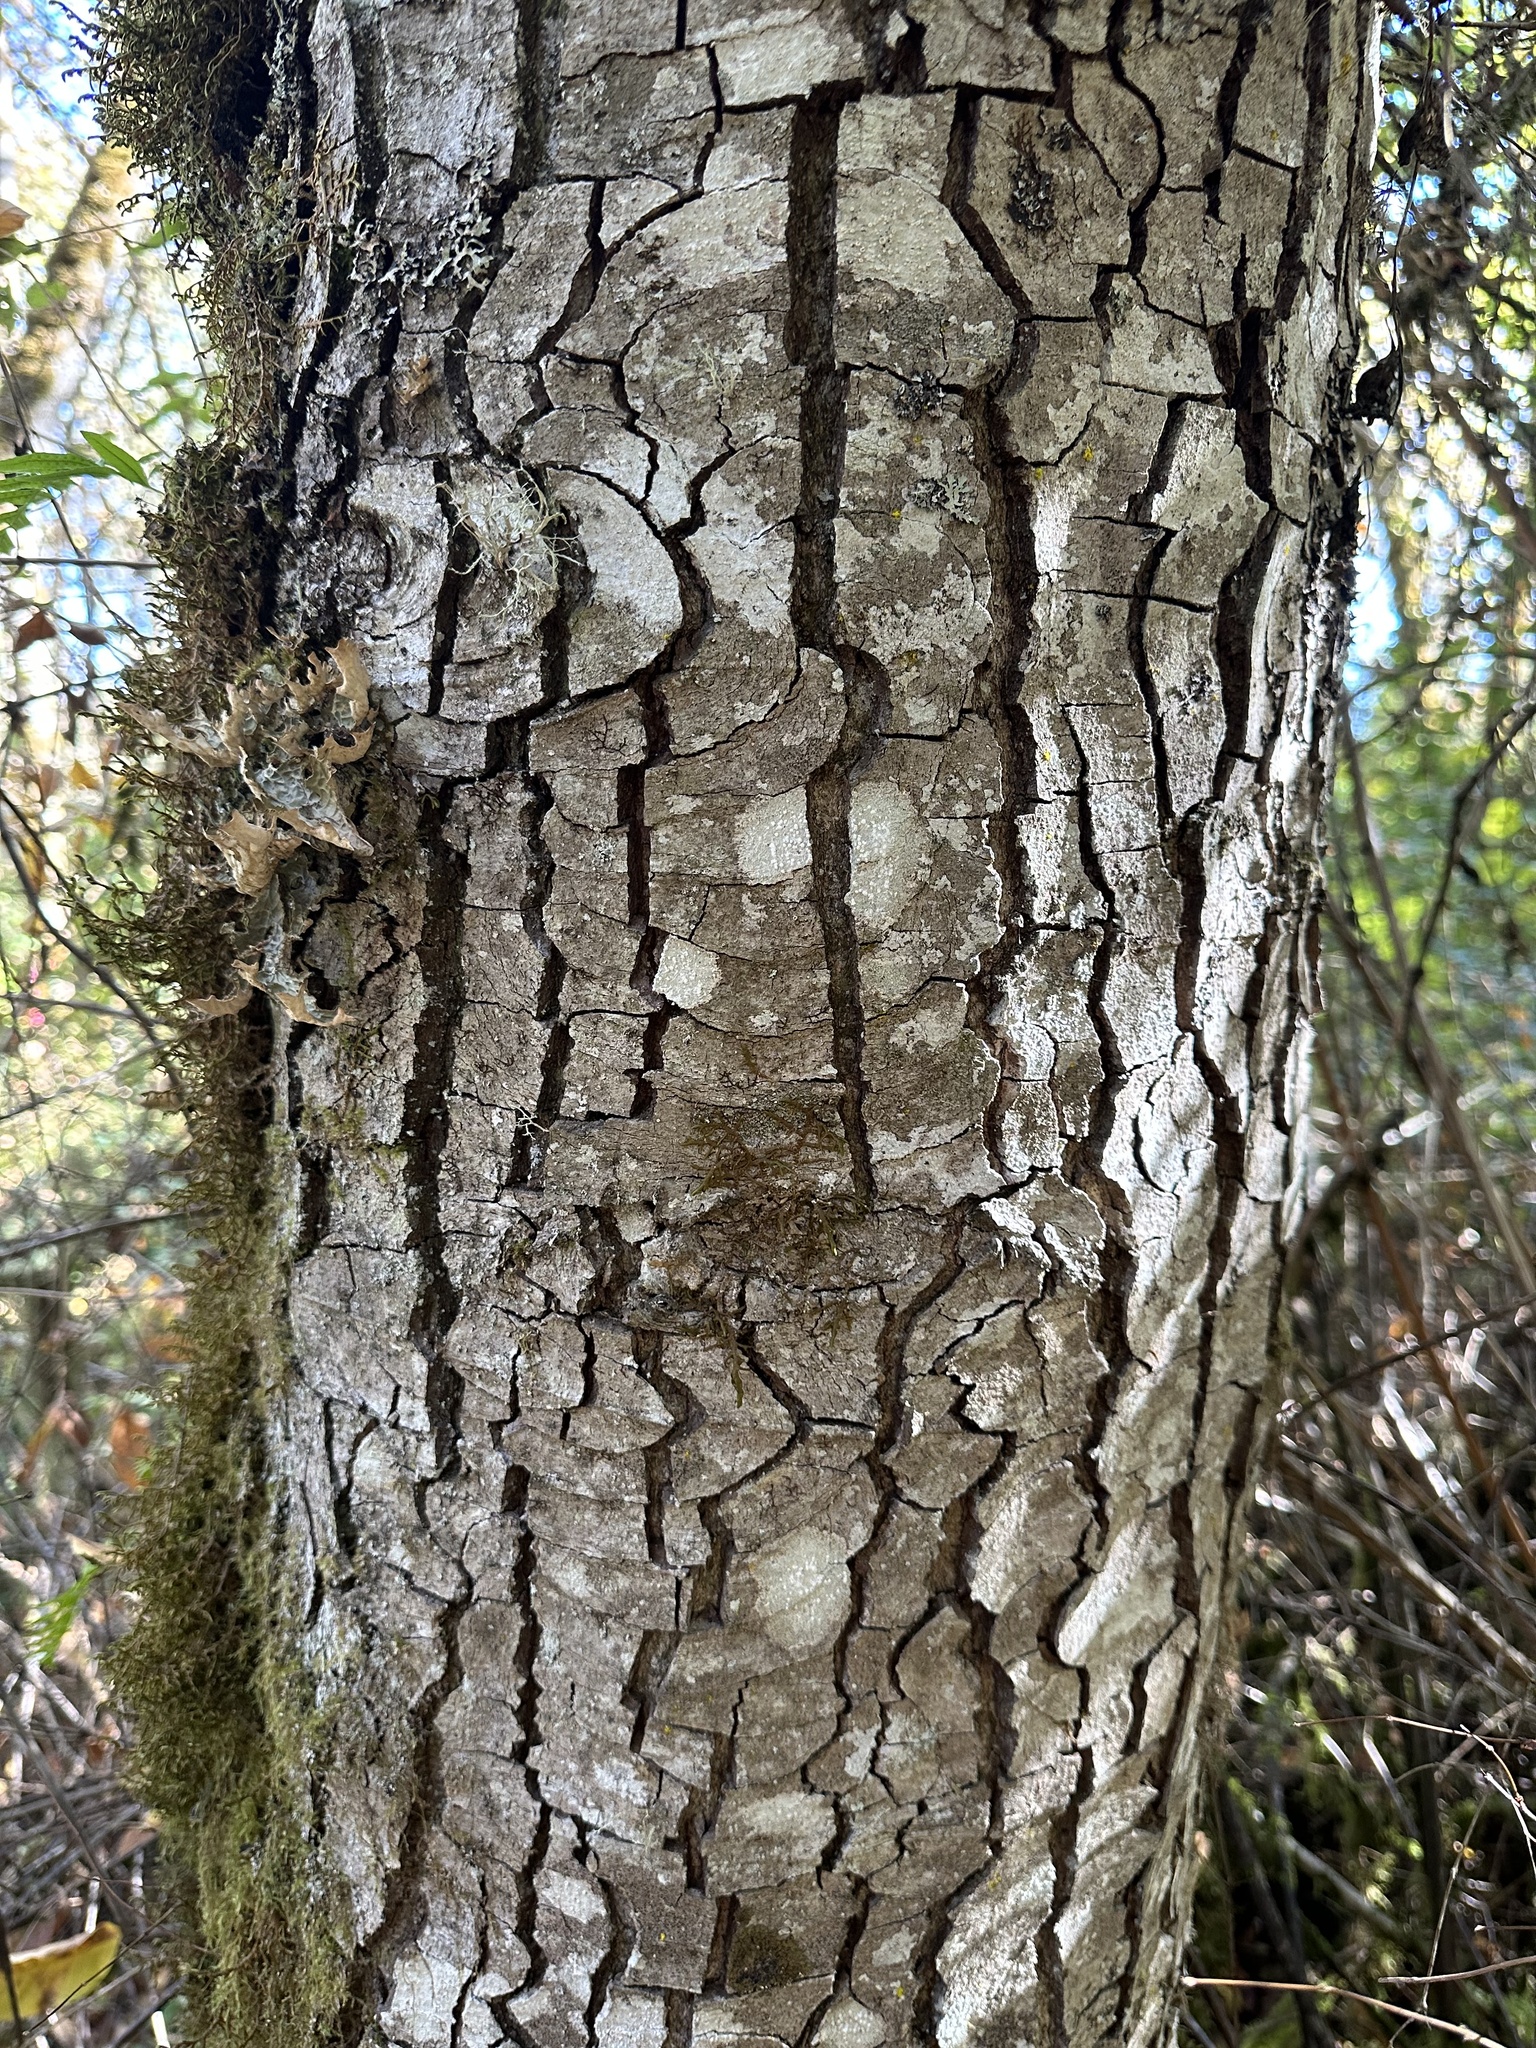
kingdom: Plantae
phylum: Tracheophyta
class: Magnoliopsida
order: Fagales
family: Betulaceae
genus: Alnus
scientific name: Alnus rhombifolia
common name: California alder
